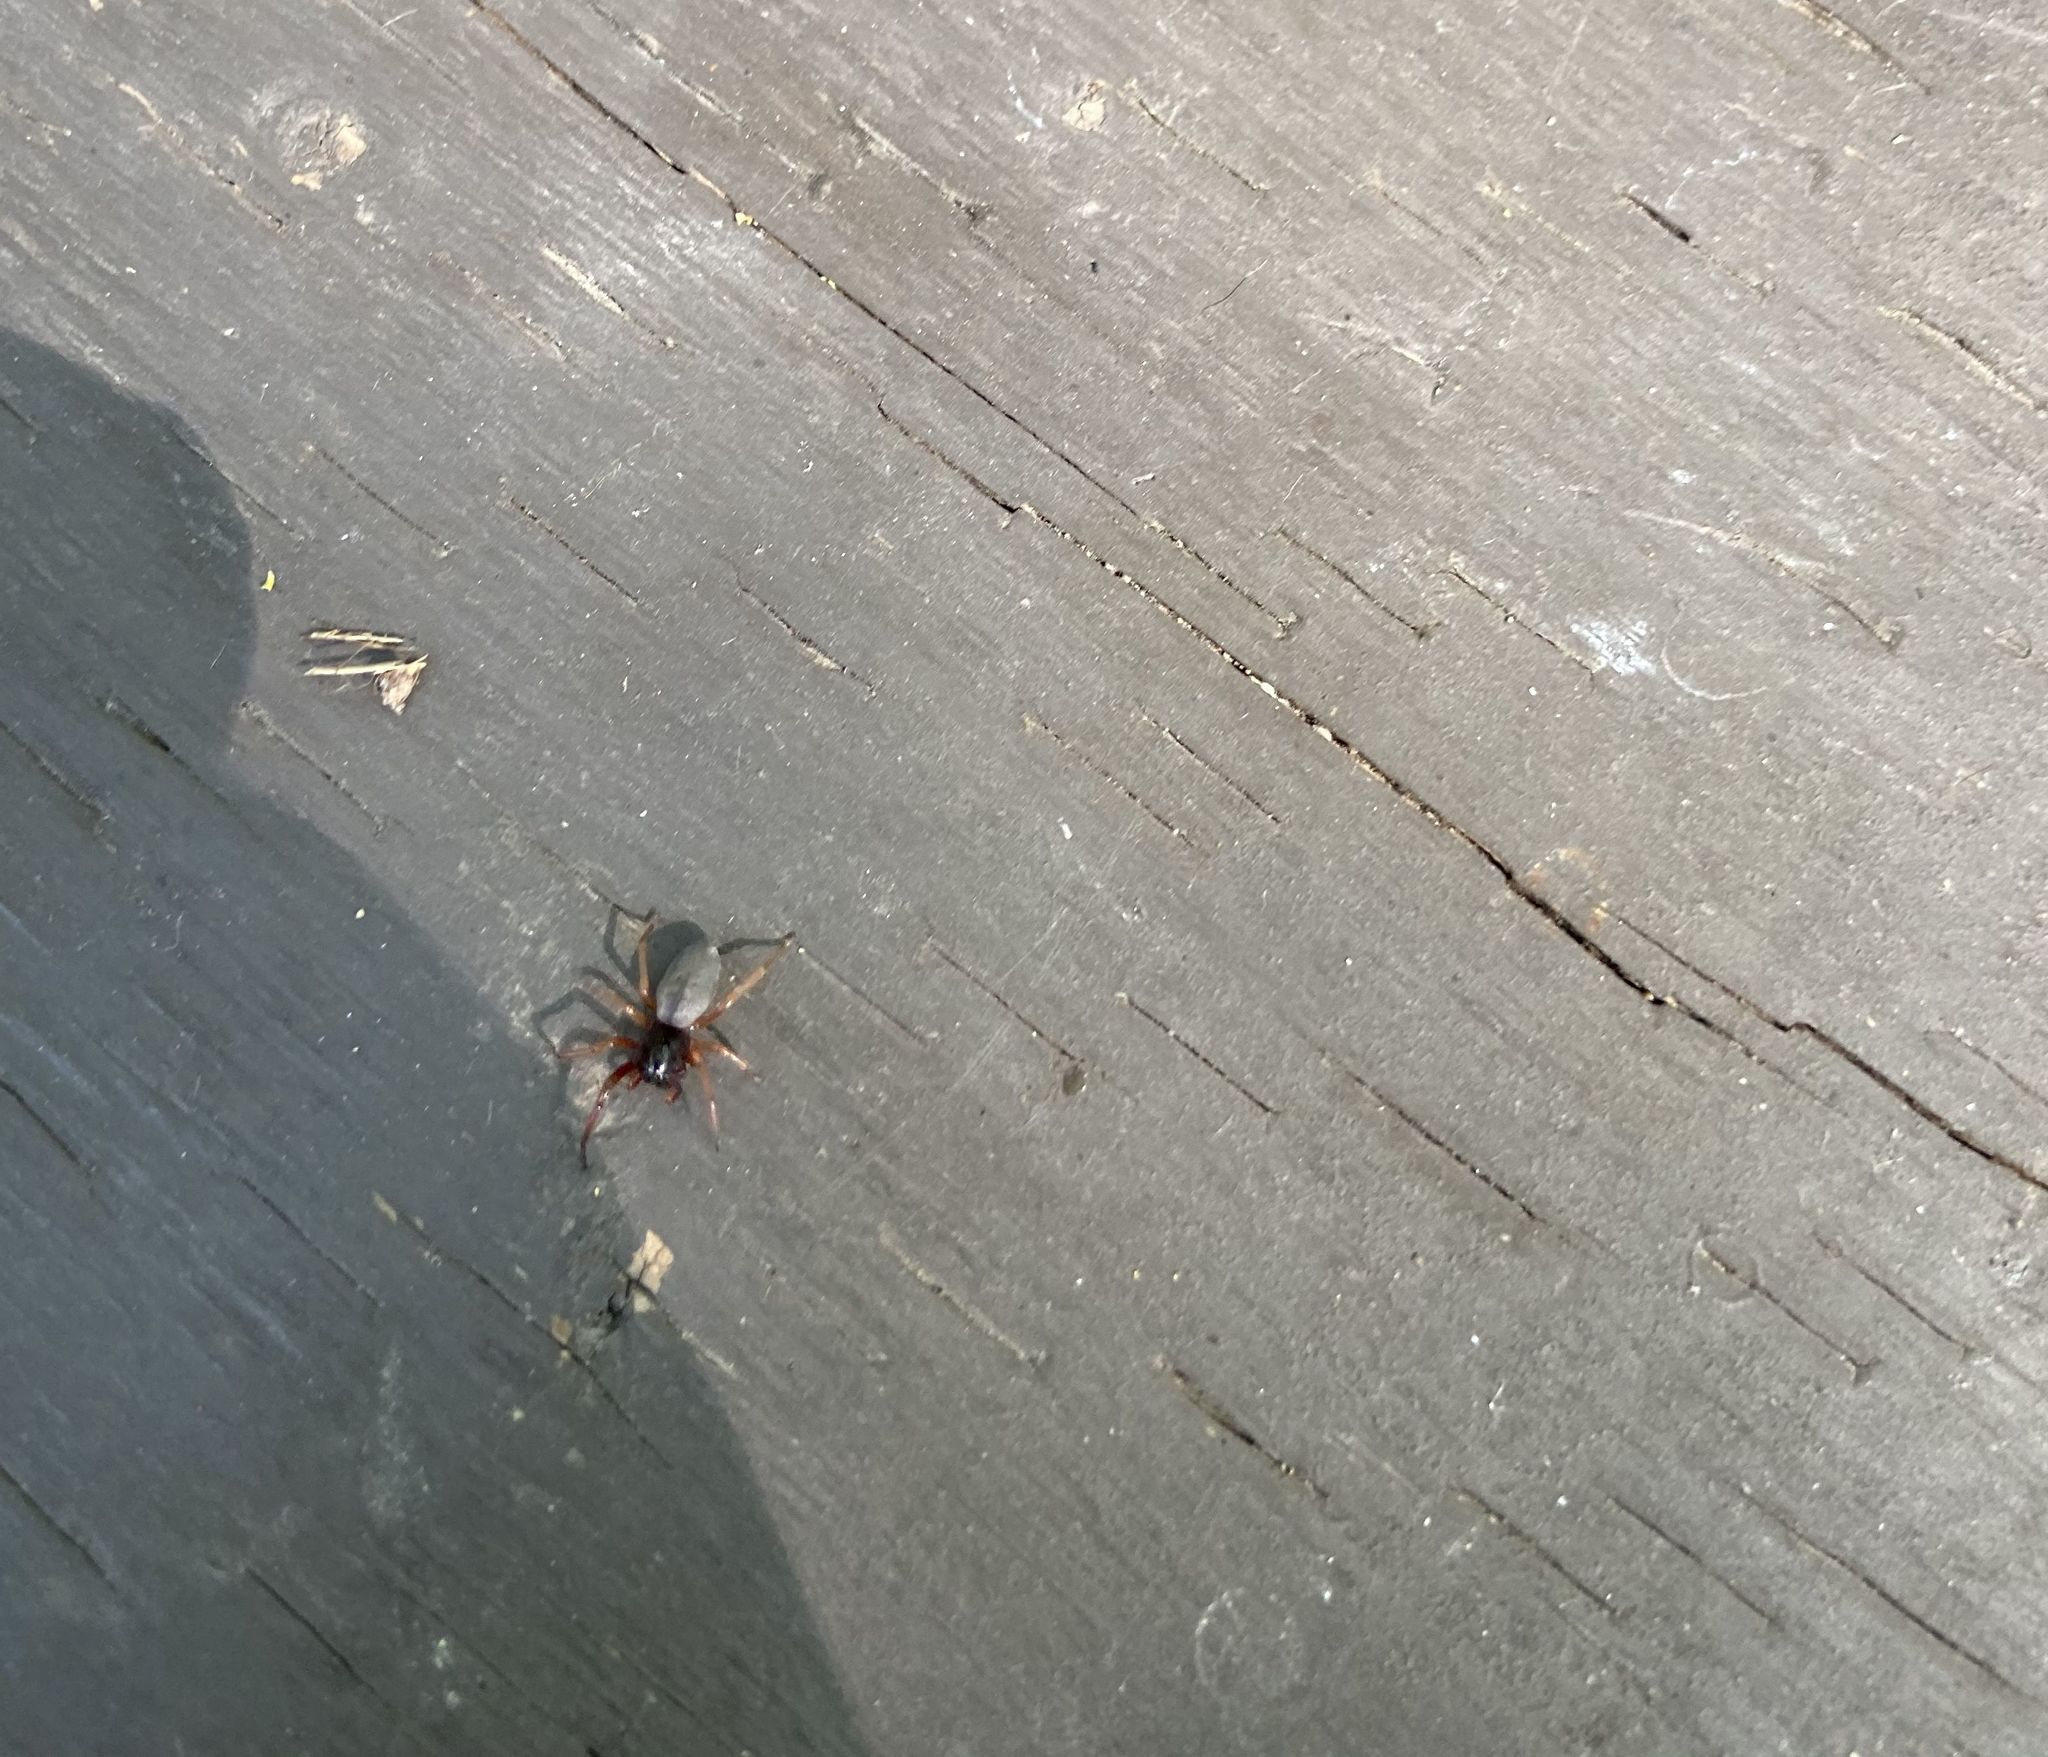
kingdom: Animalia
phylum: Arthropoda
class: Arachnida
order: Araneae
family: Trachelidae
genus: Trachelas
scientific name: Trachelas tranquillus
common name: Broad-faced sac spider
